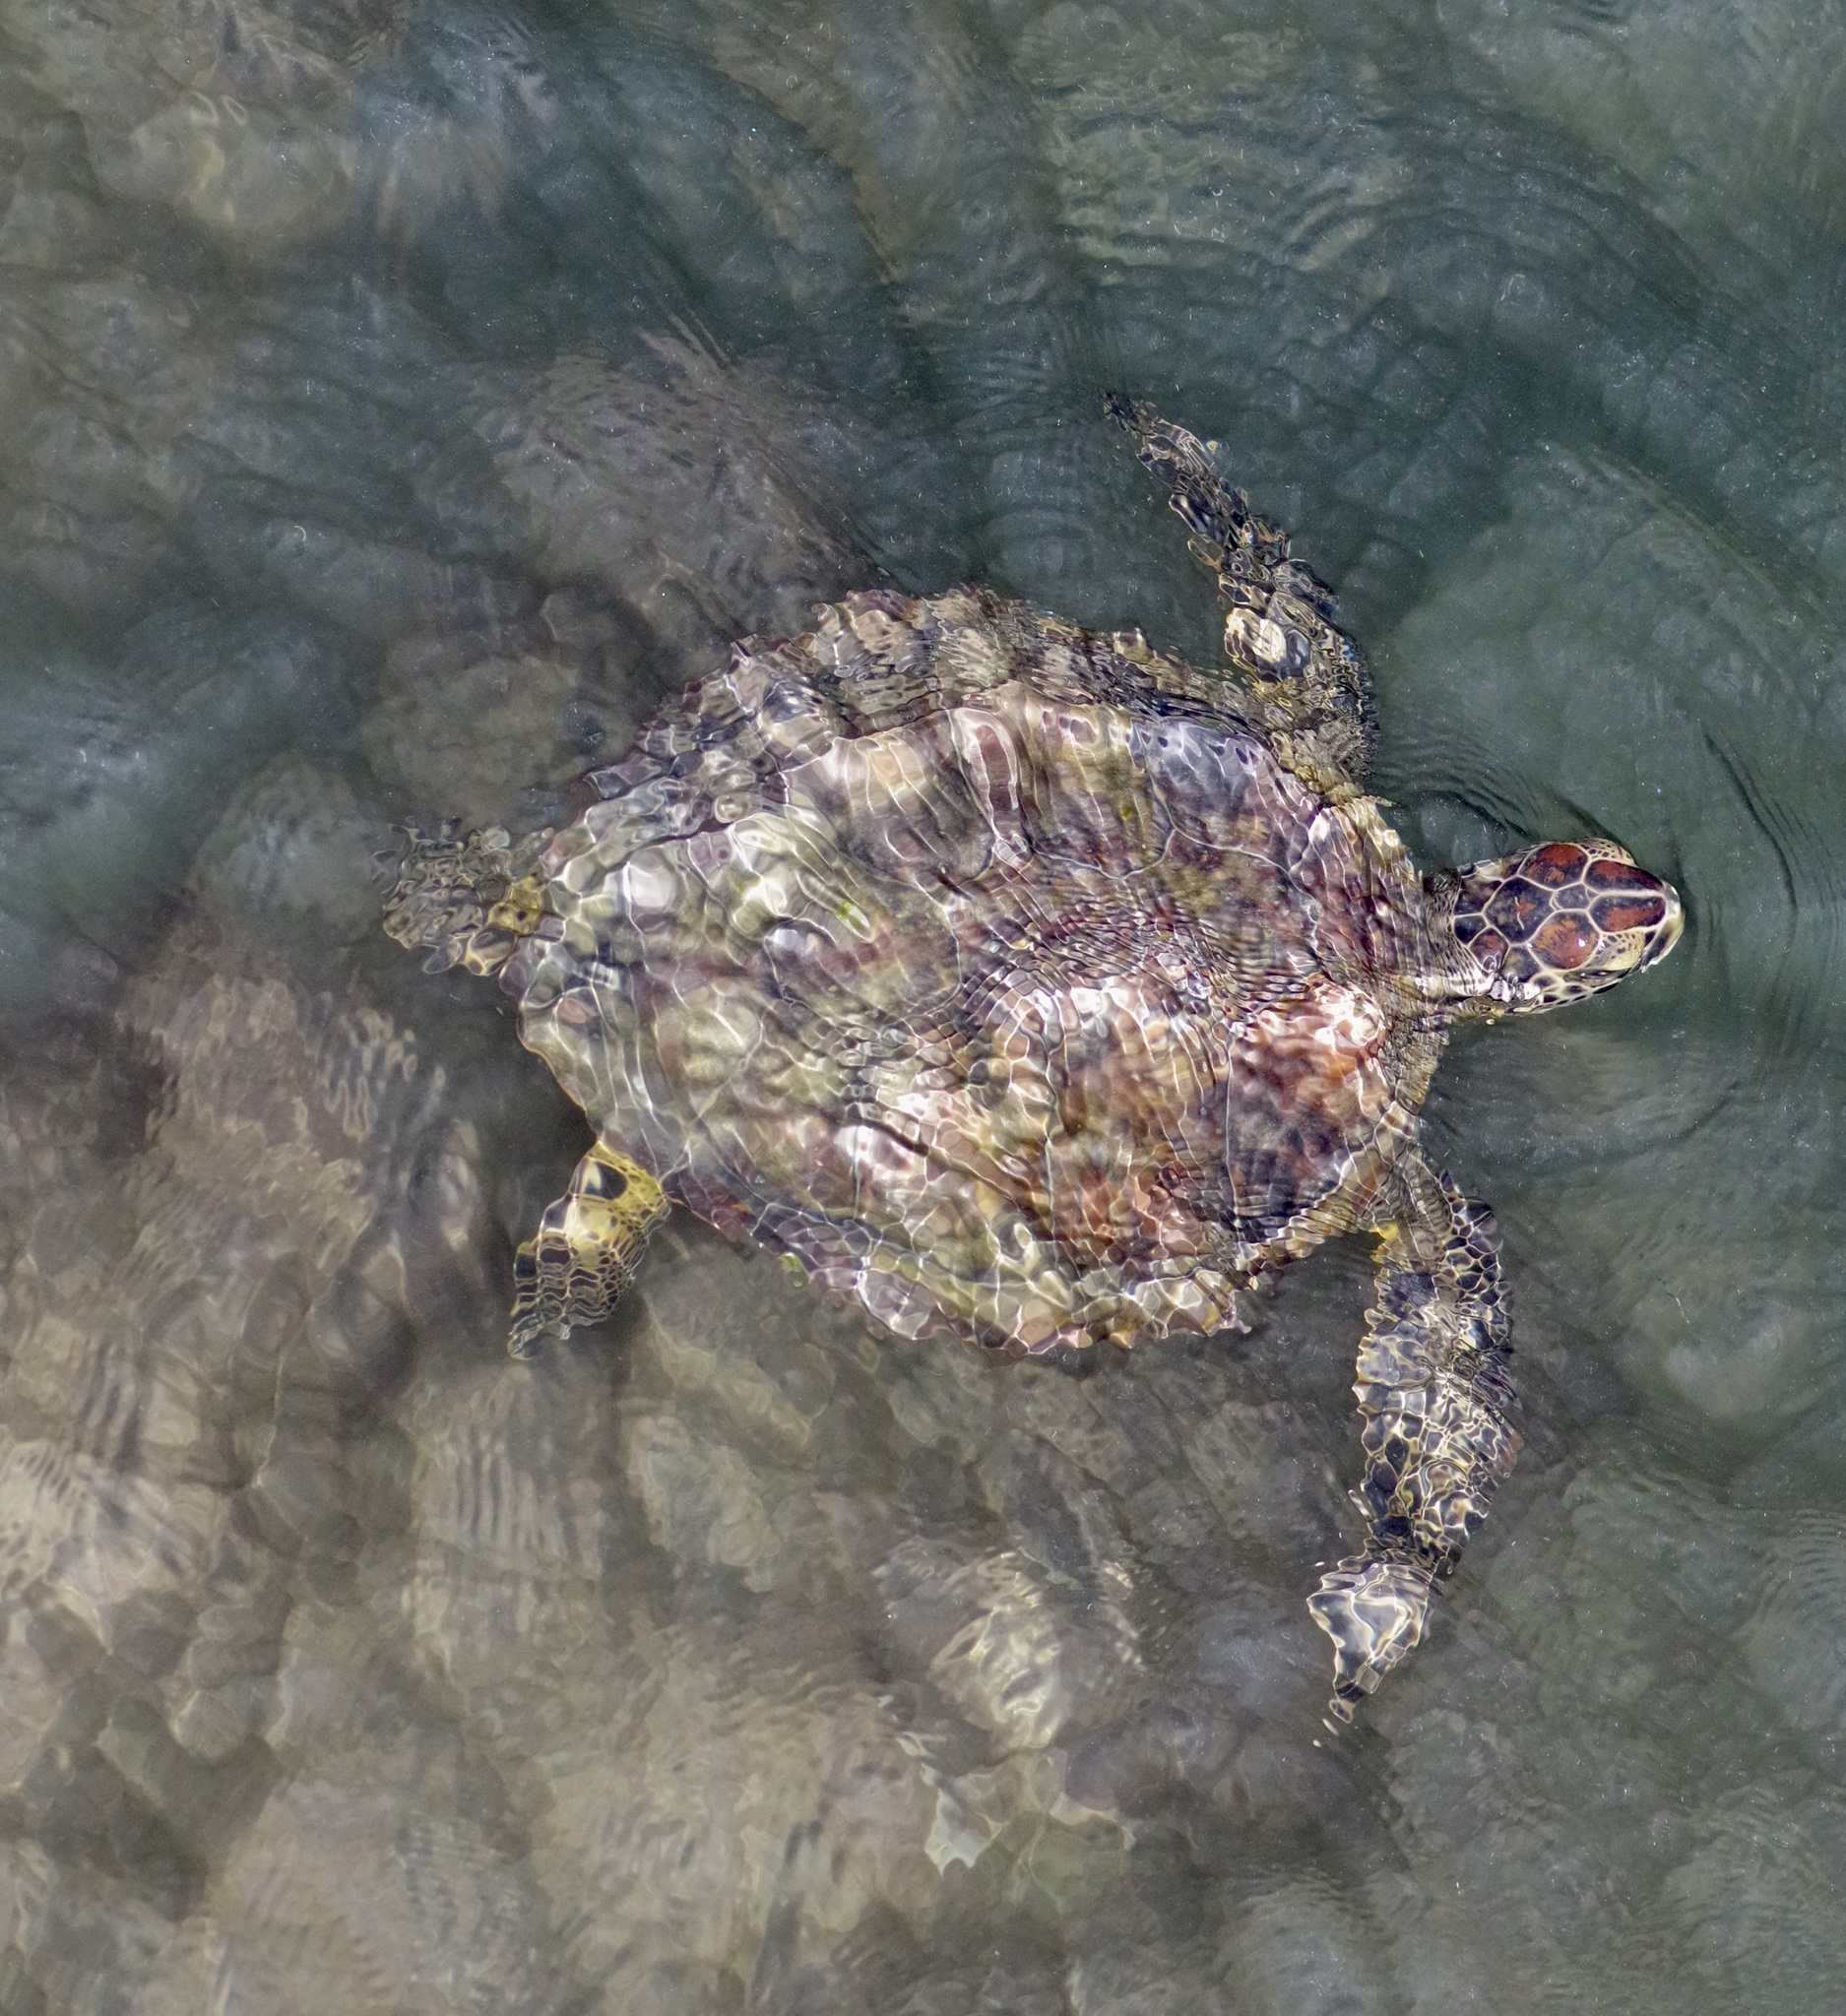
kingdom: Animalia
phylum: Chordata
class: Testudines
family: Cheloniidae
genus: Chelonia
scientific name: Chelonia mydas
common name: Green turtle
